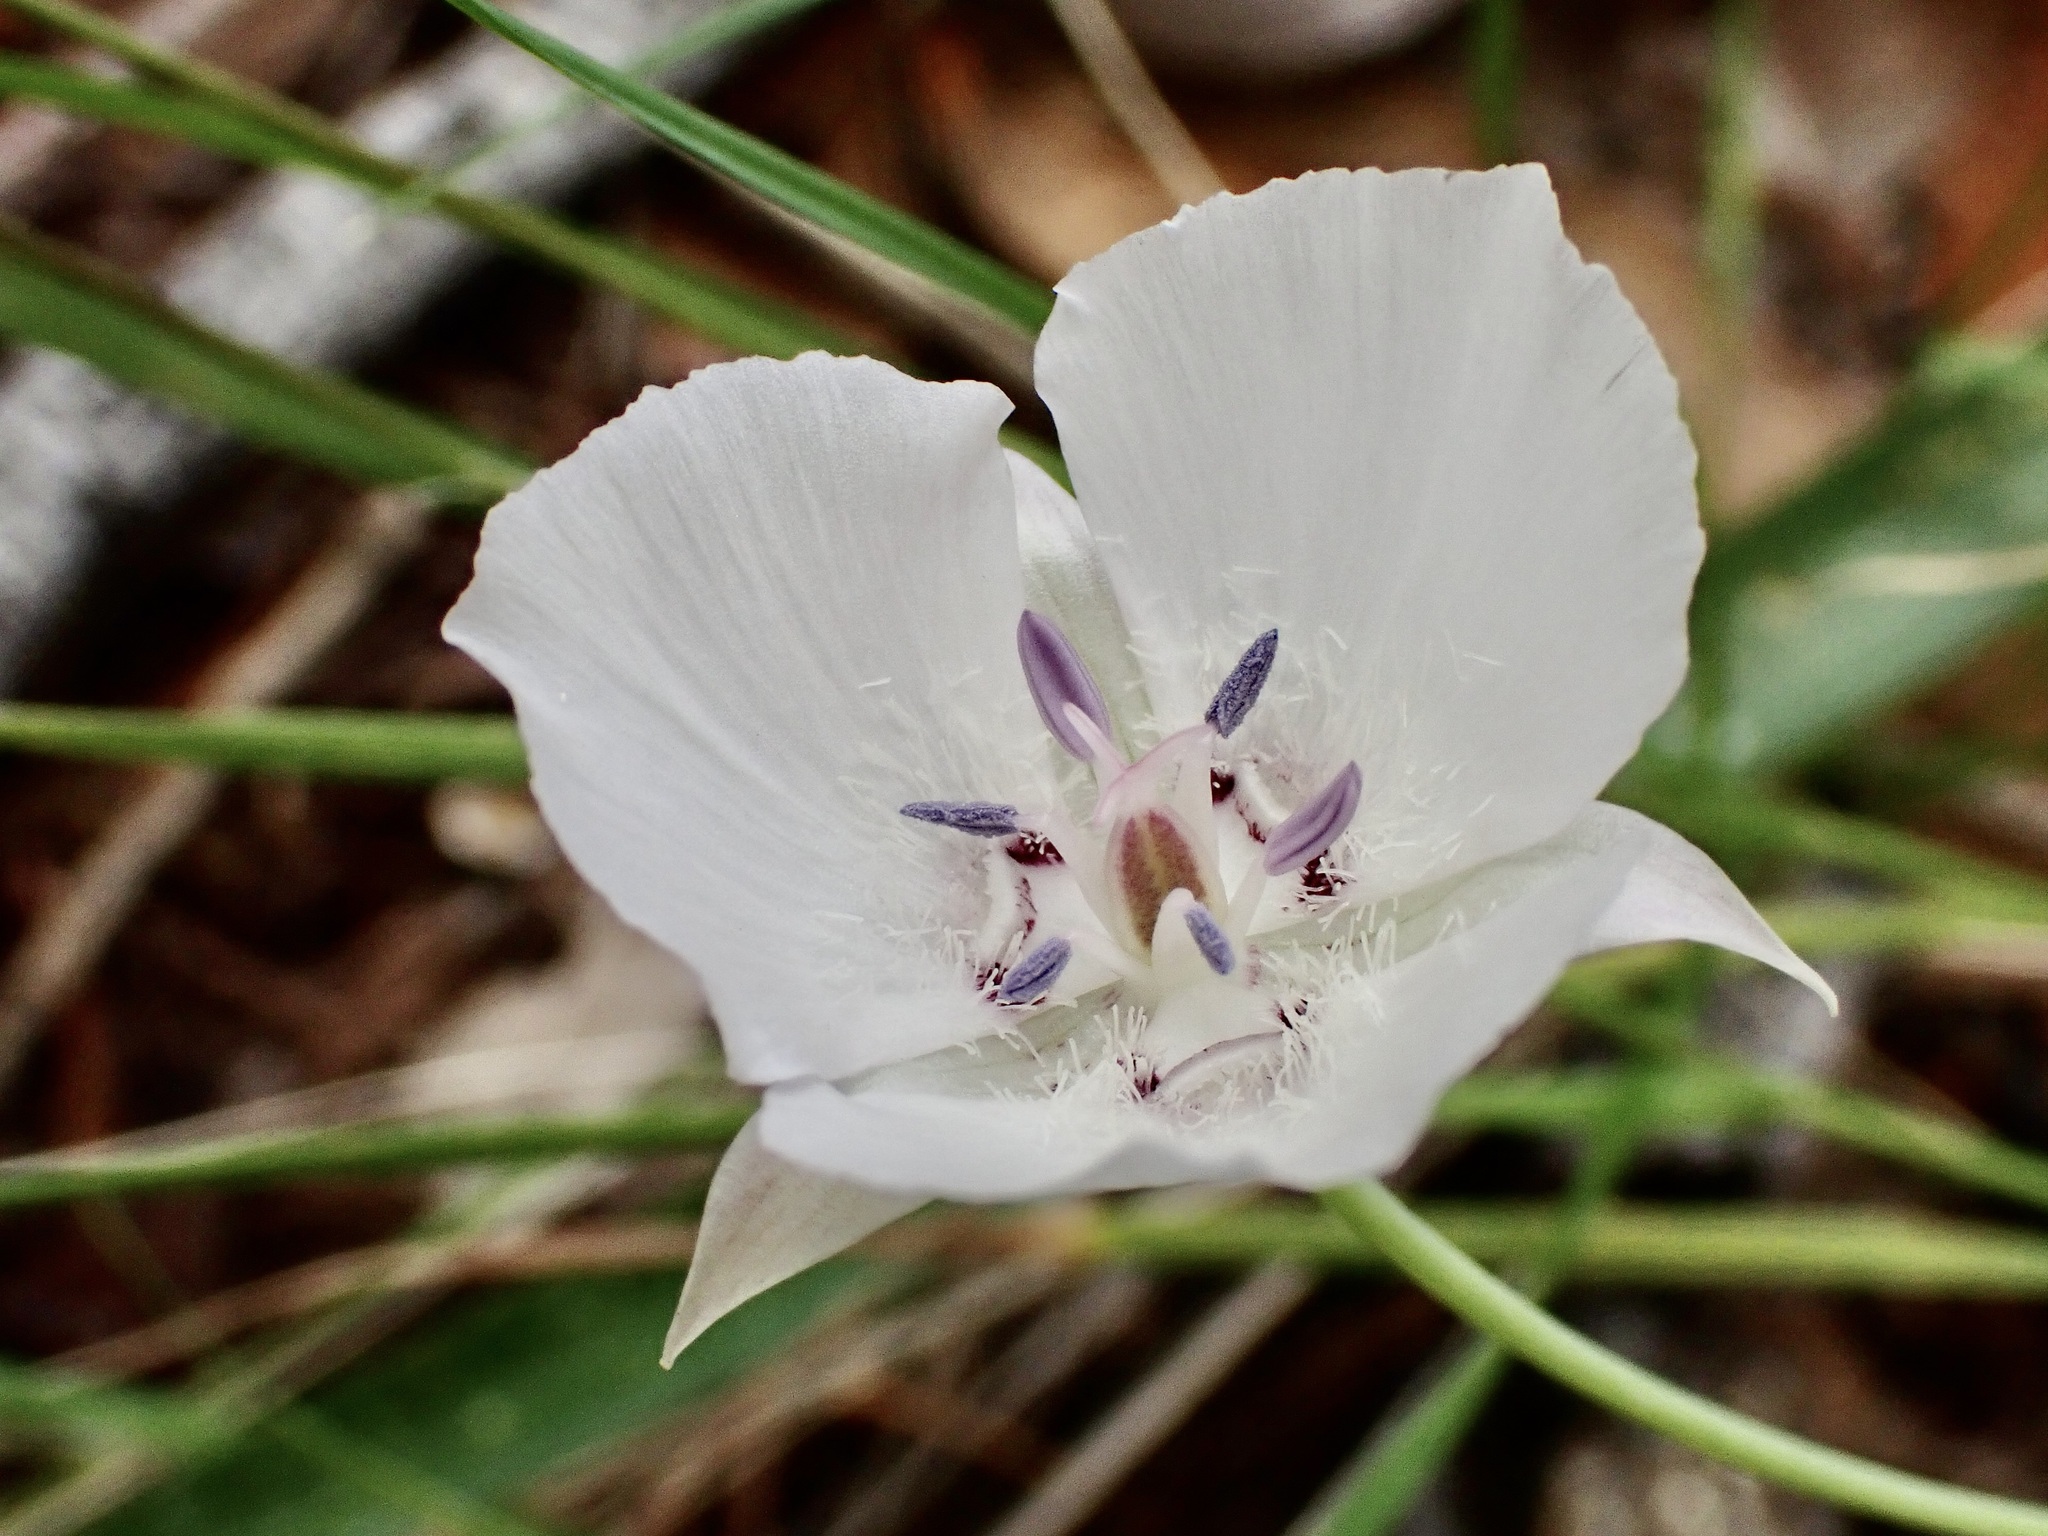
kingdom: Plantae
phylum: Tracheophyta
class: Liliopsida
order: Liliales
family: Liliaceae
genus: Calochortus
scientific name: Calochortus umbellatus
